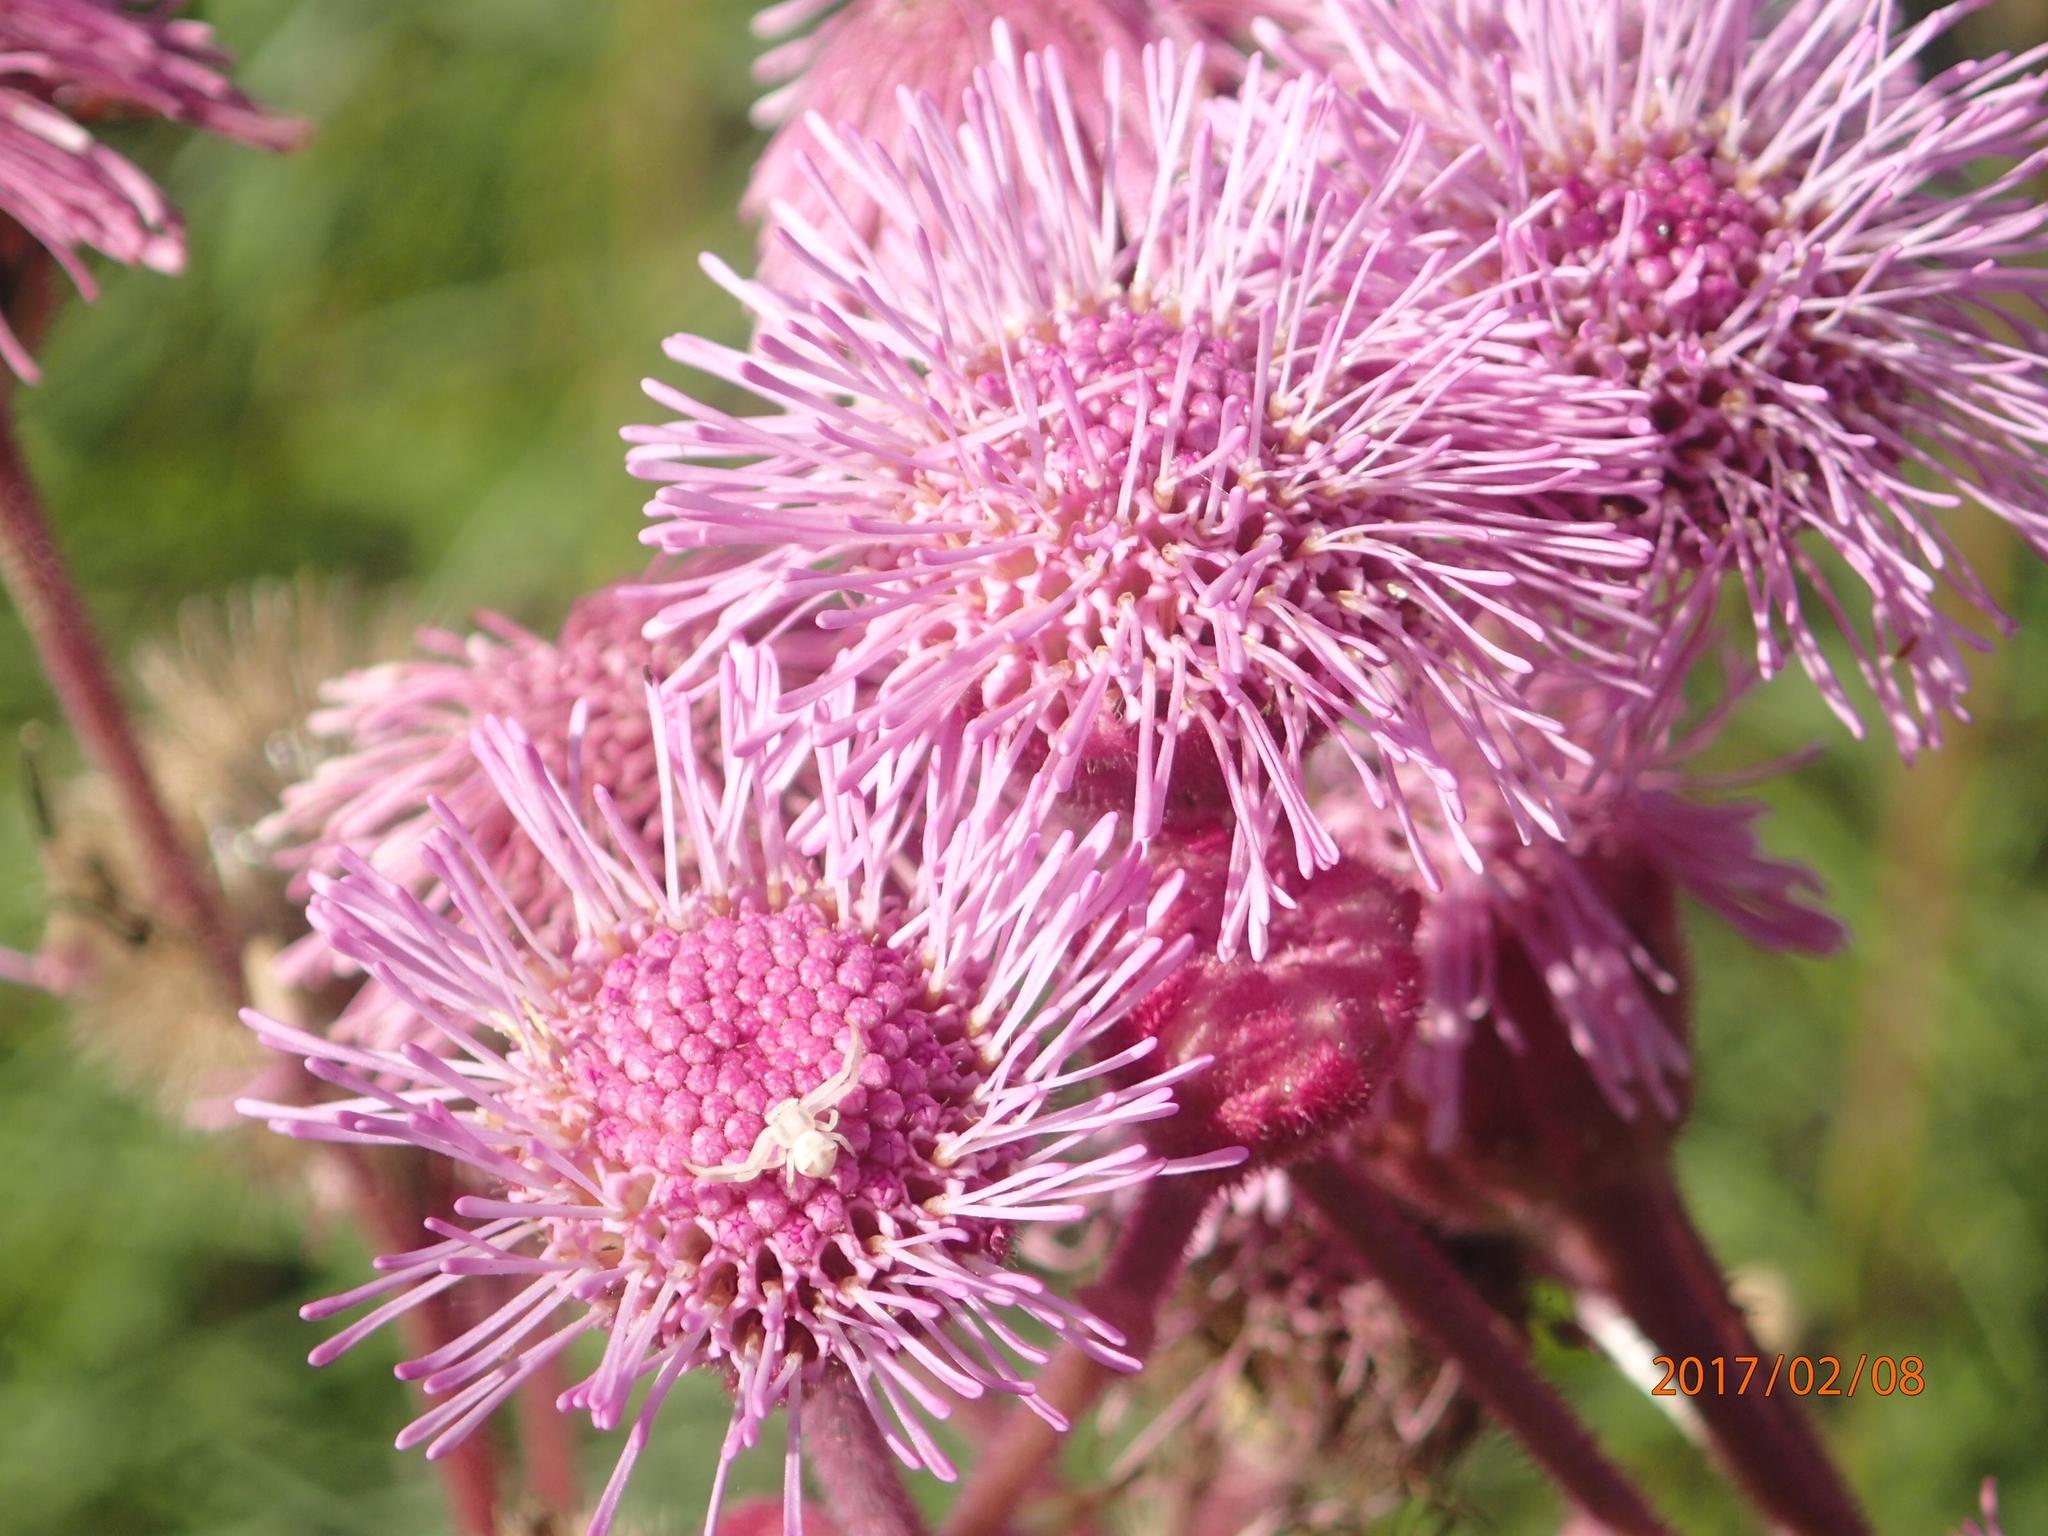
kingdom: Plantae
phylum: Tracheophyta
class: Magnoliopsida
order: Asterales
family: Asteraceae
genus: Campuloclinium
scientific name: Campuloclinium macrocephalum
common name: Pompomweed
